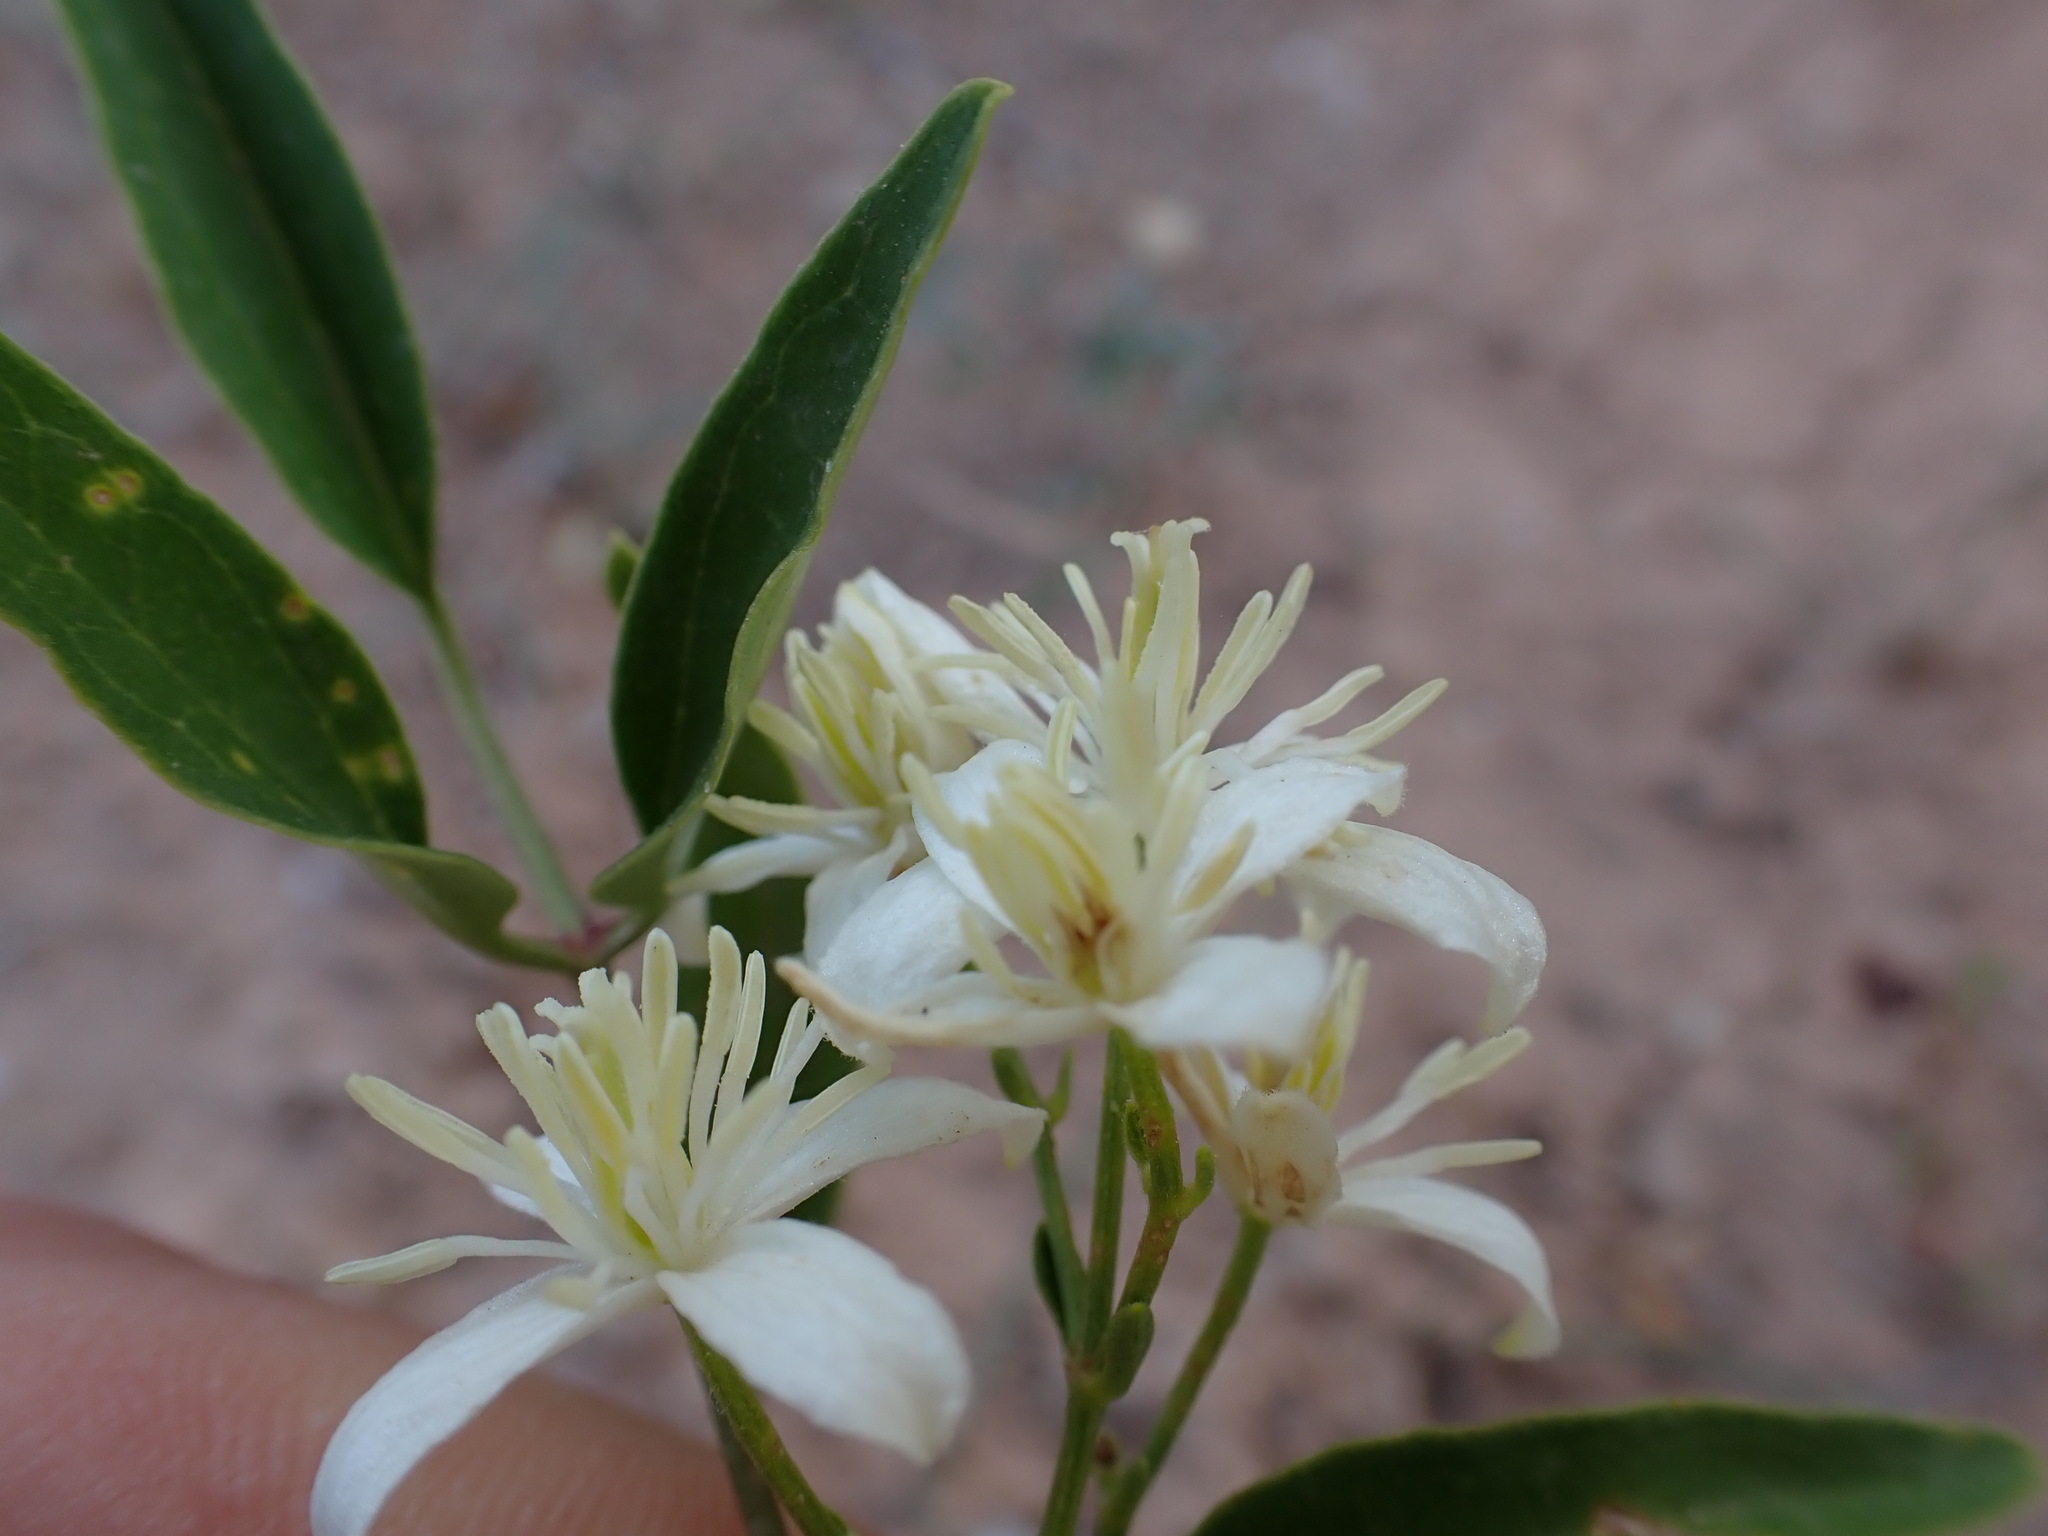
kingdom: Plantae
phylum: Tracheophyta
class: Magnoliopsida
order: Ranunculales
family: Ranunculaceae
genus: Clematis
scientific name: Clematis flammula
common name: Virgin's-bower
